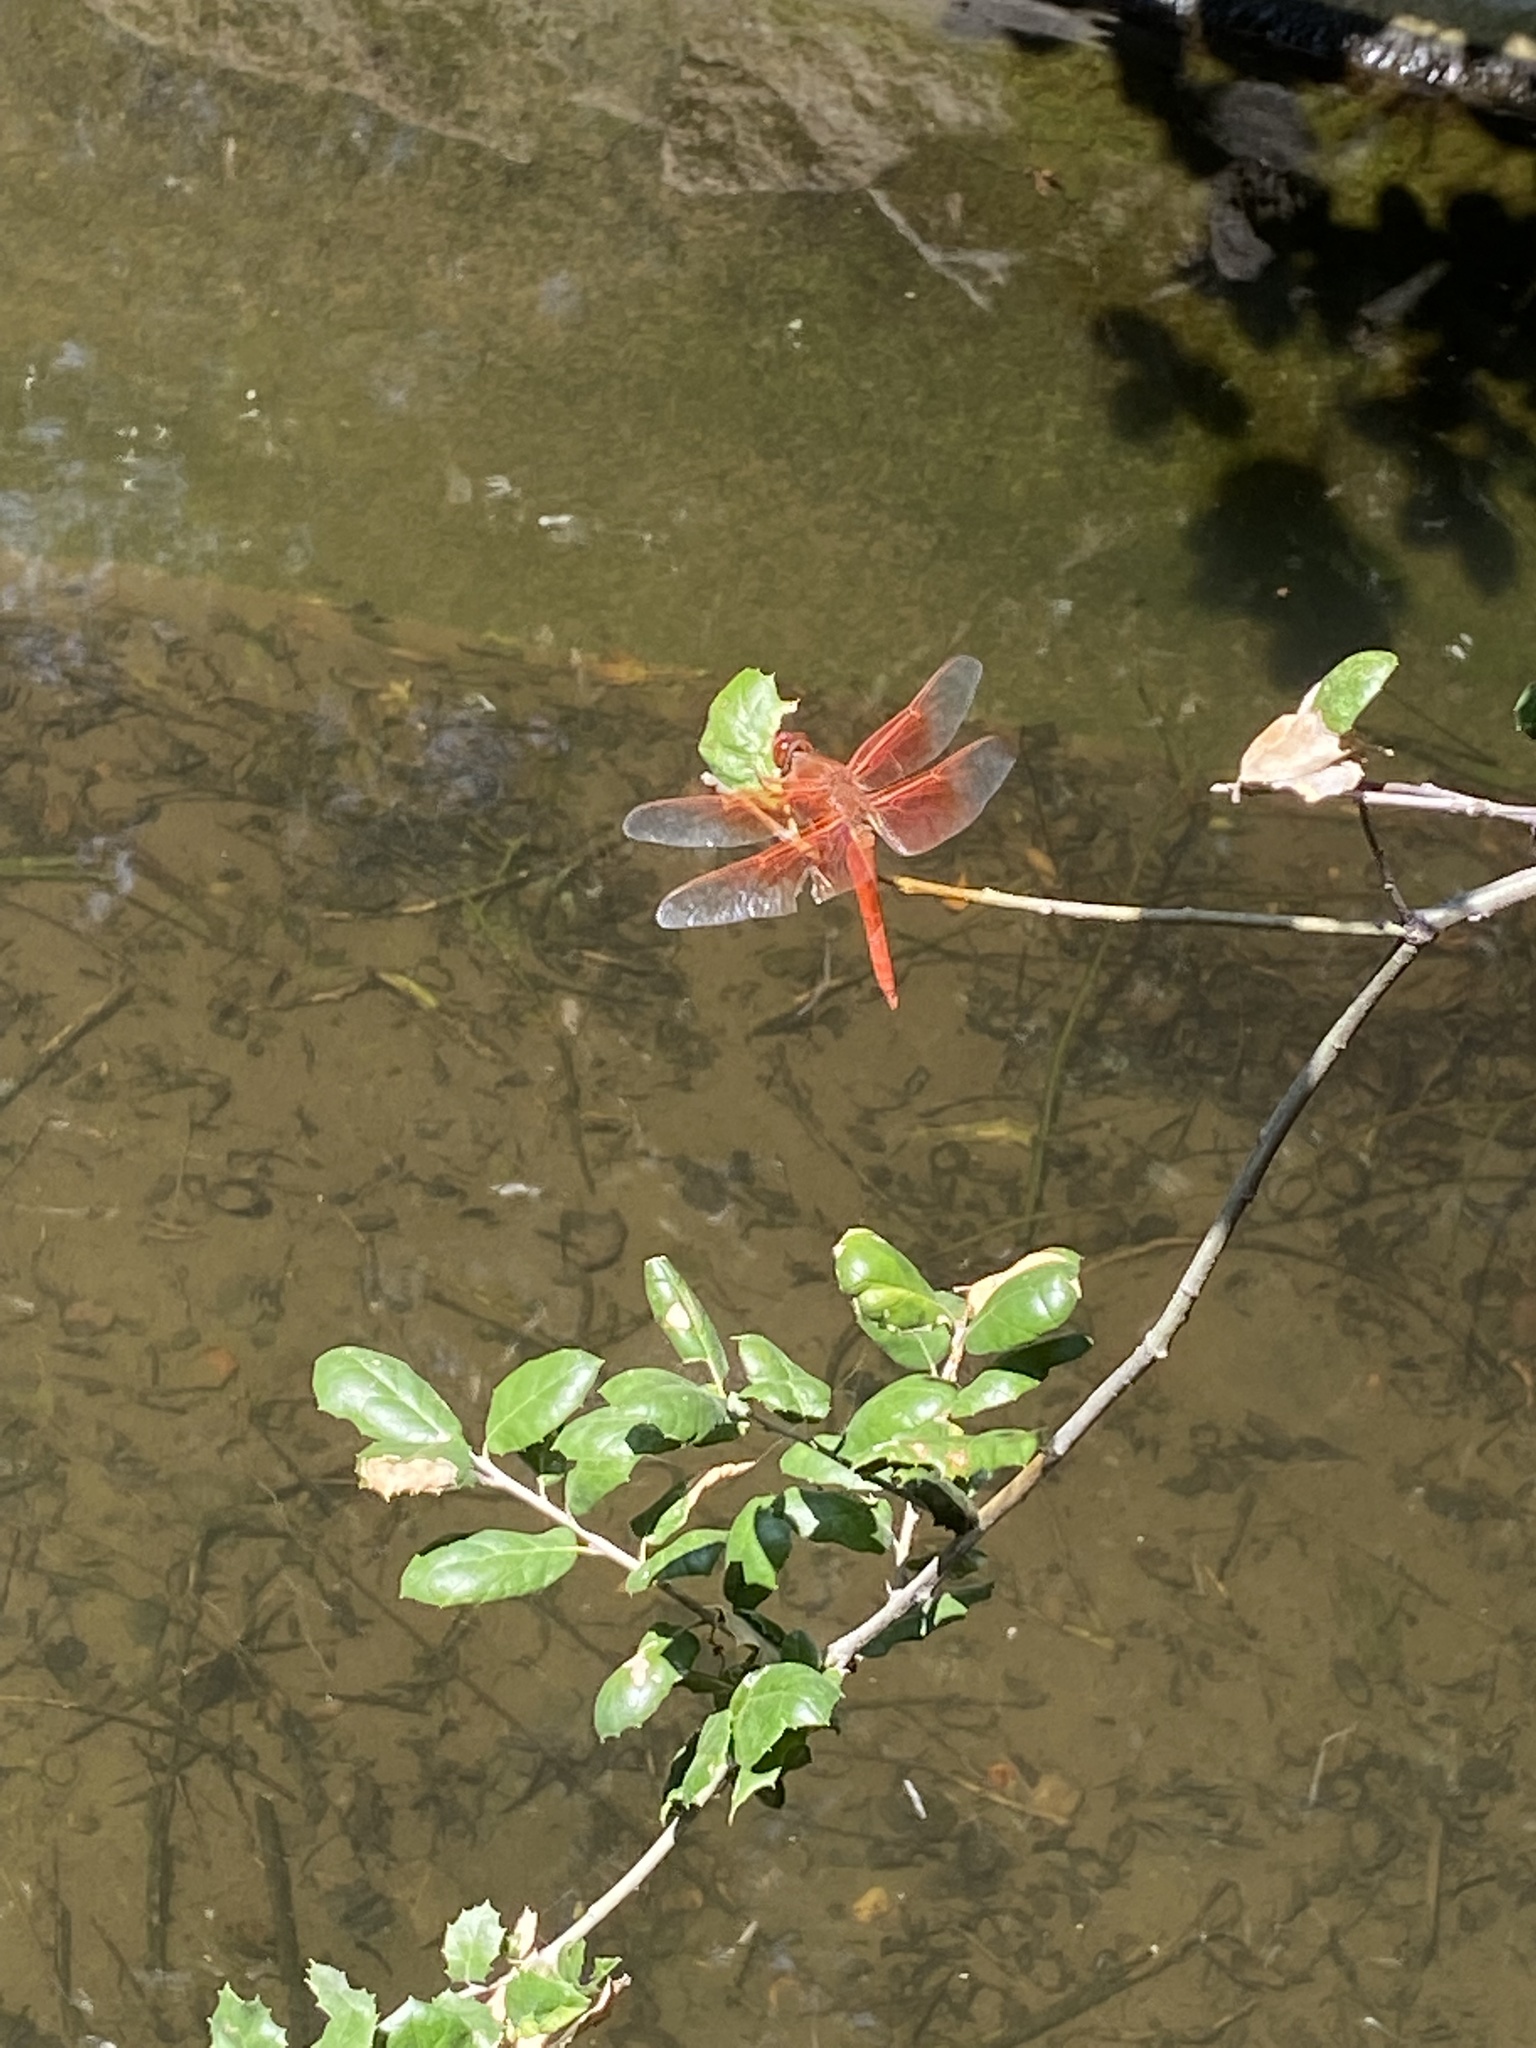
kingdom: Animalia
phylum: Arthropoda
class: Insecta
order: Odonata
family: Libellulidae
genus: Libellula
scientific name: Libellula saturata
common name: Flame skimmer
